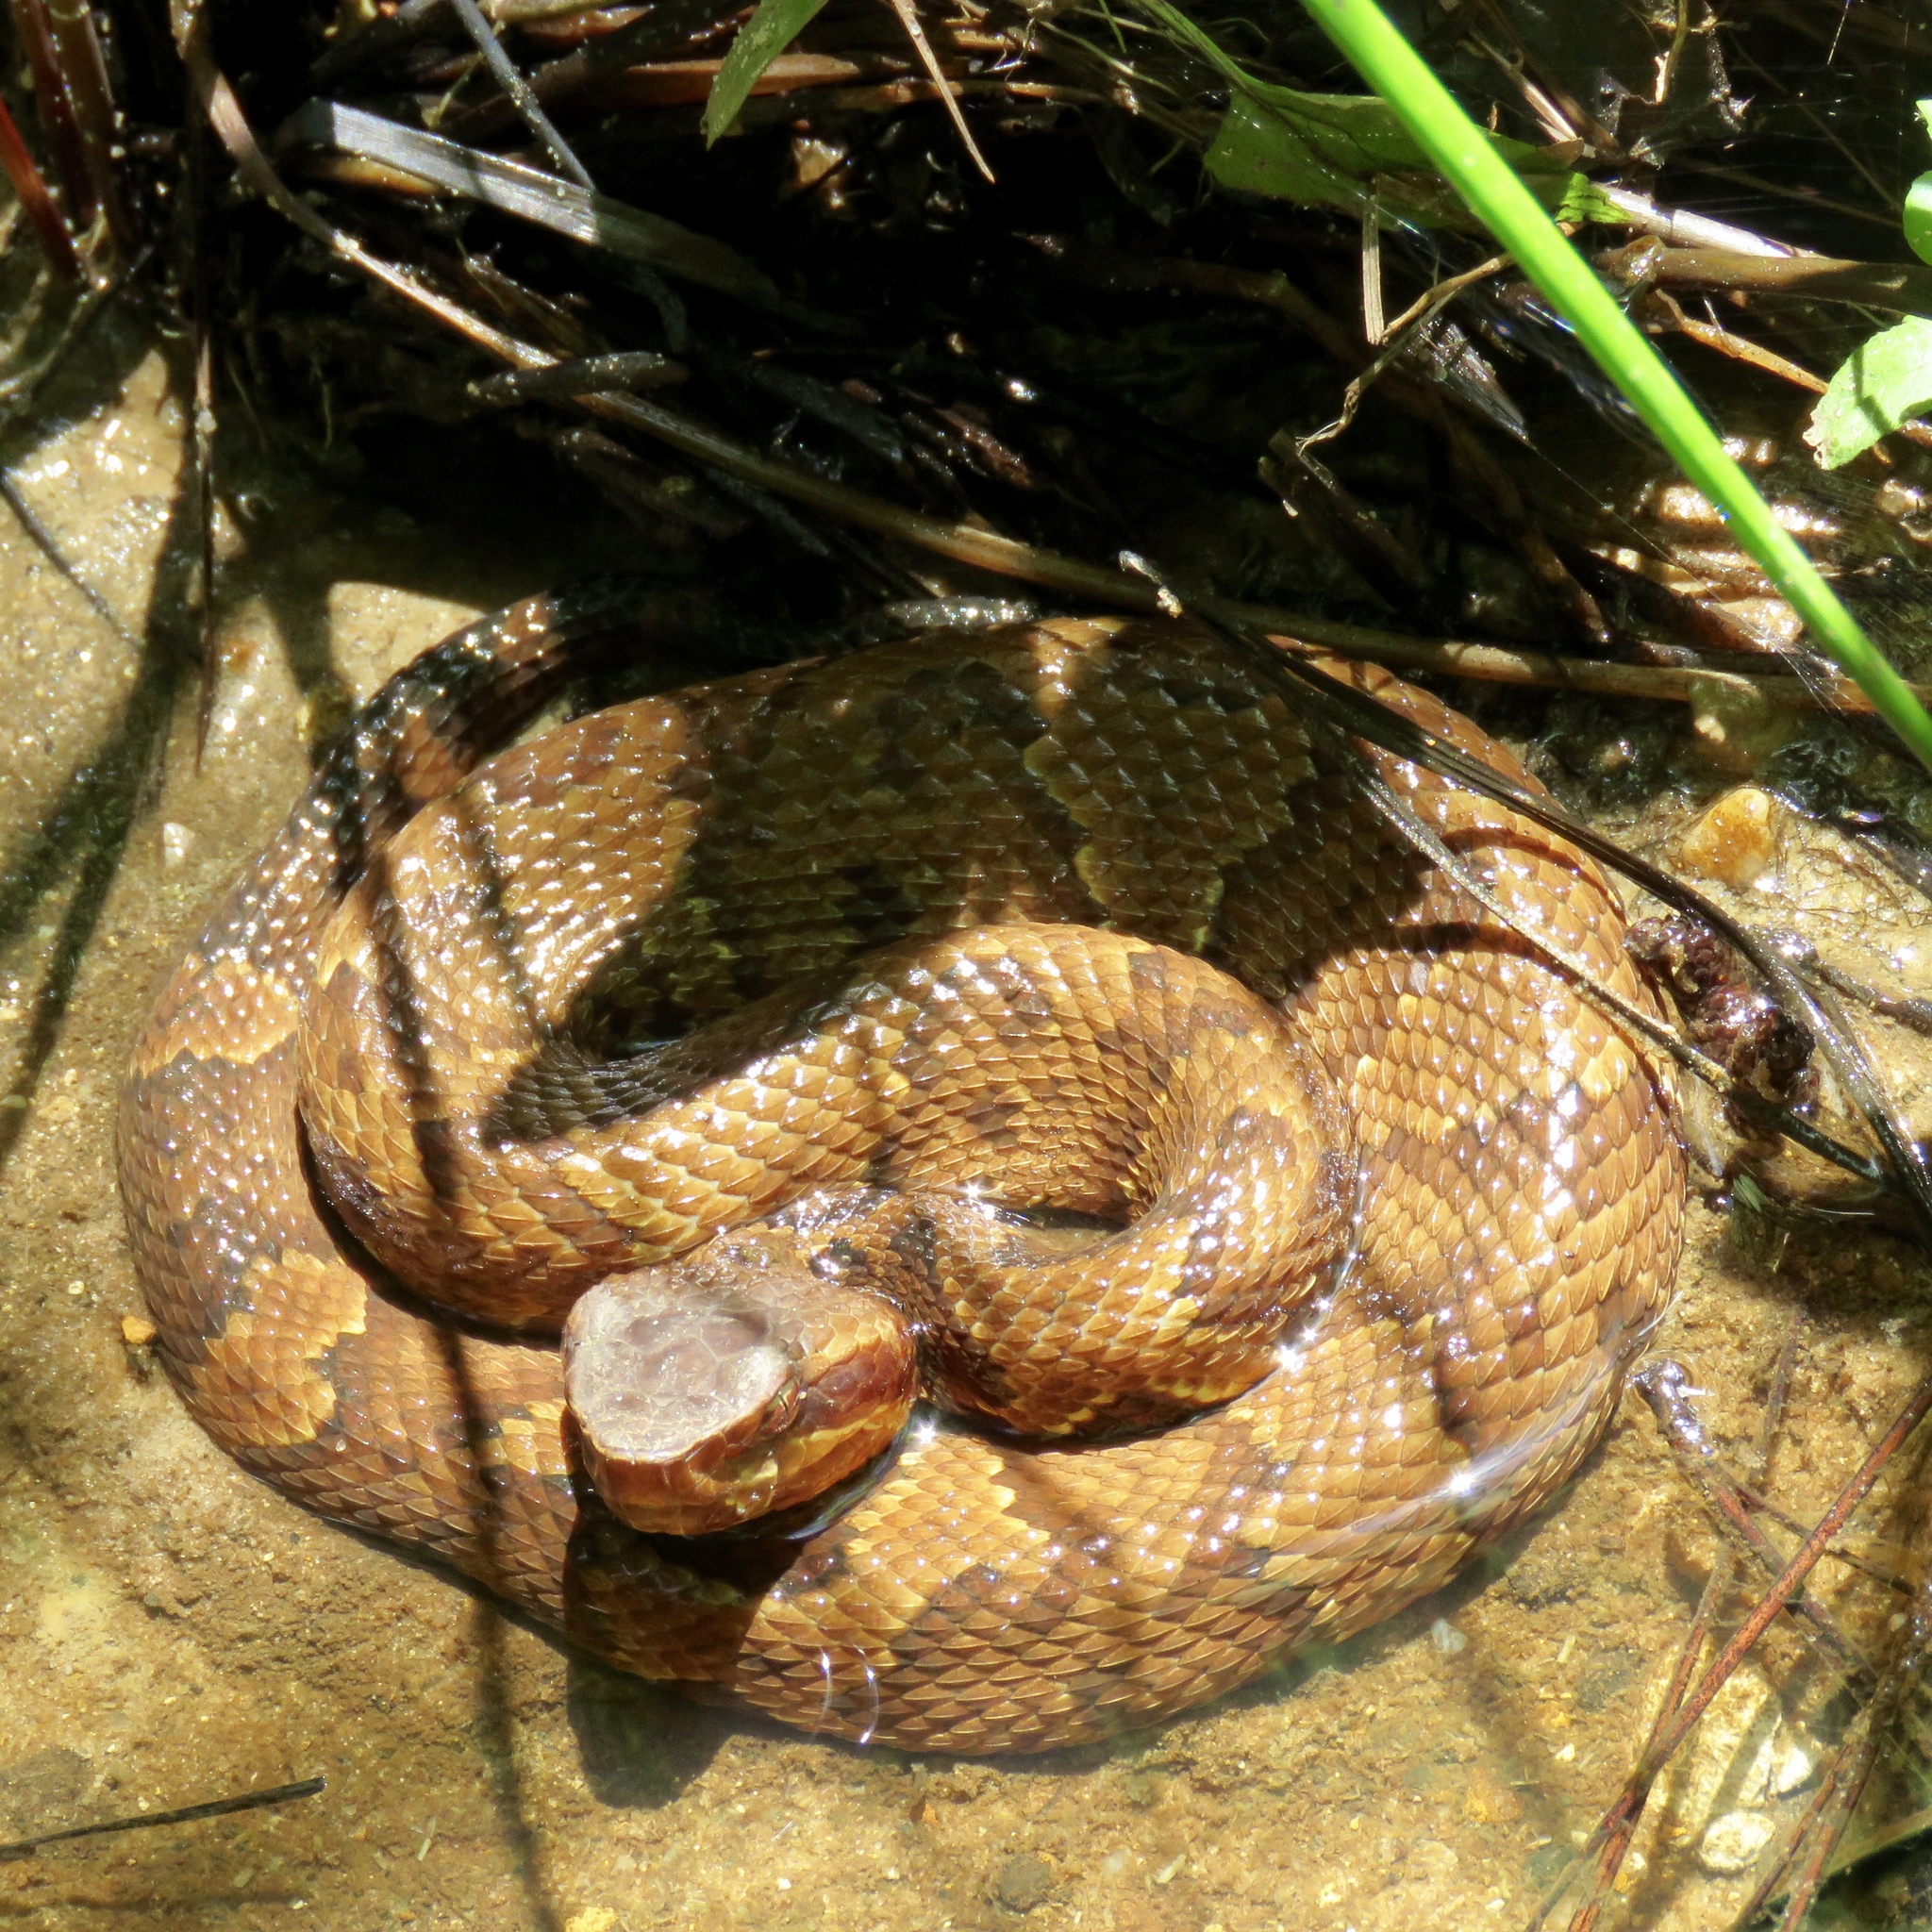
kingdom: Animalia
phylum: Chordata
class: Squamata
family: Viperidae
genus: Agkistrodon
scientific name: Agkistrodon piscivorus
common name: Cottonmouth
